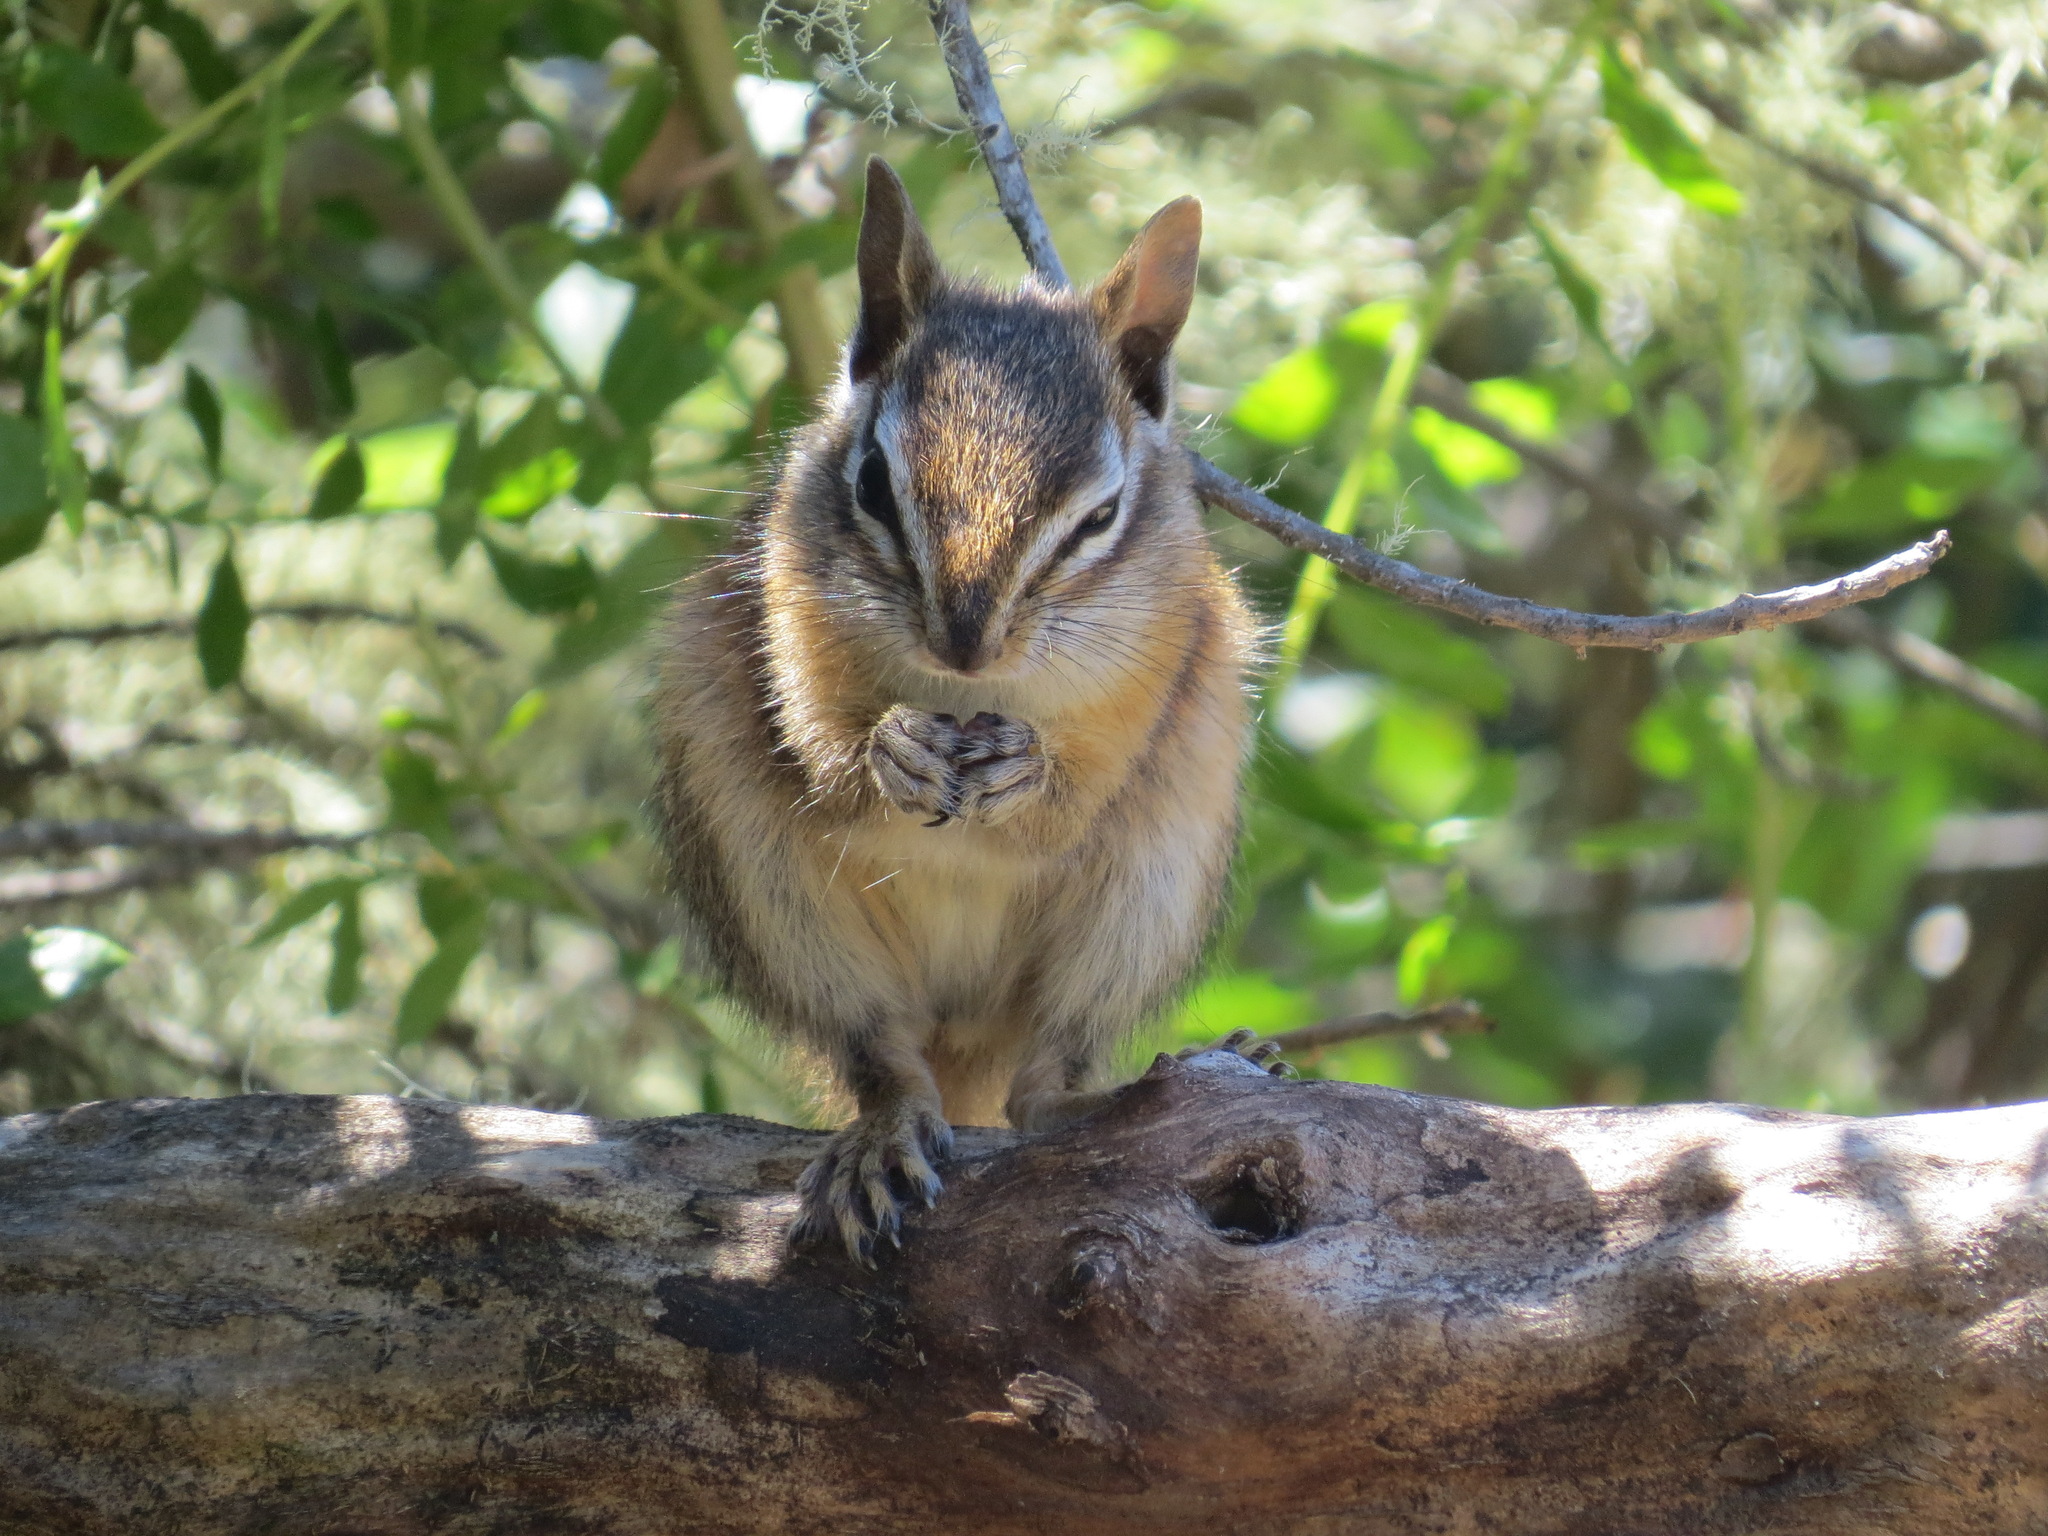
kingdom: Animalia
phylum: Chordata
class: Mammalia
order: Rodentia
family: Sciuridae
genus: Tamias
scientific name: Tamias merriami
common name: Merriam's chipmunk
